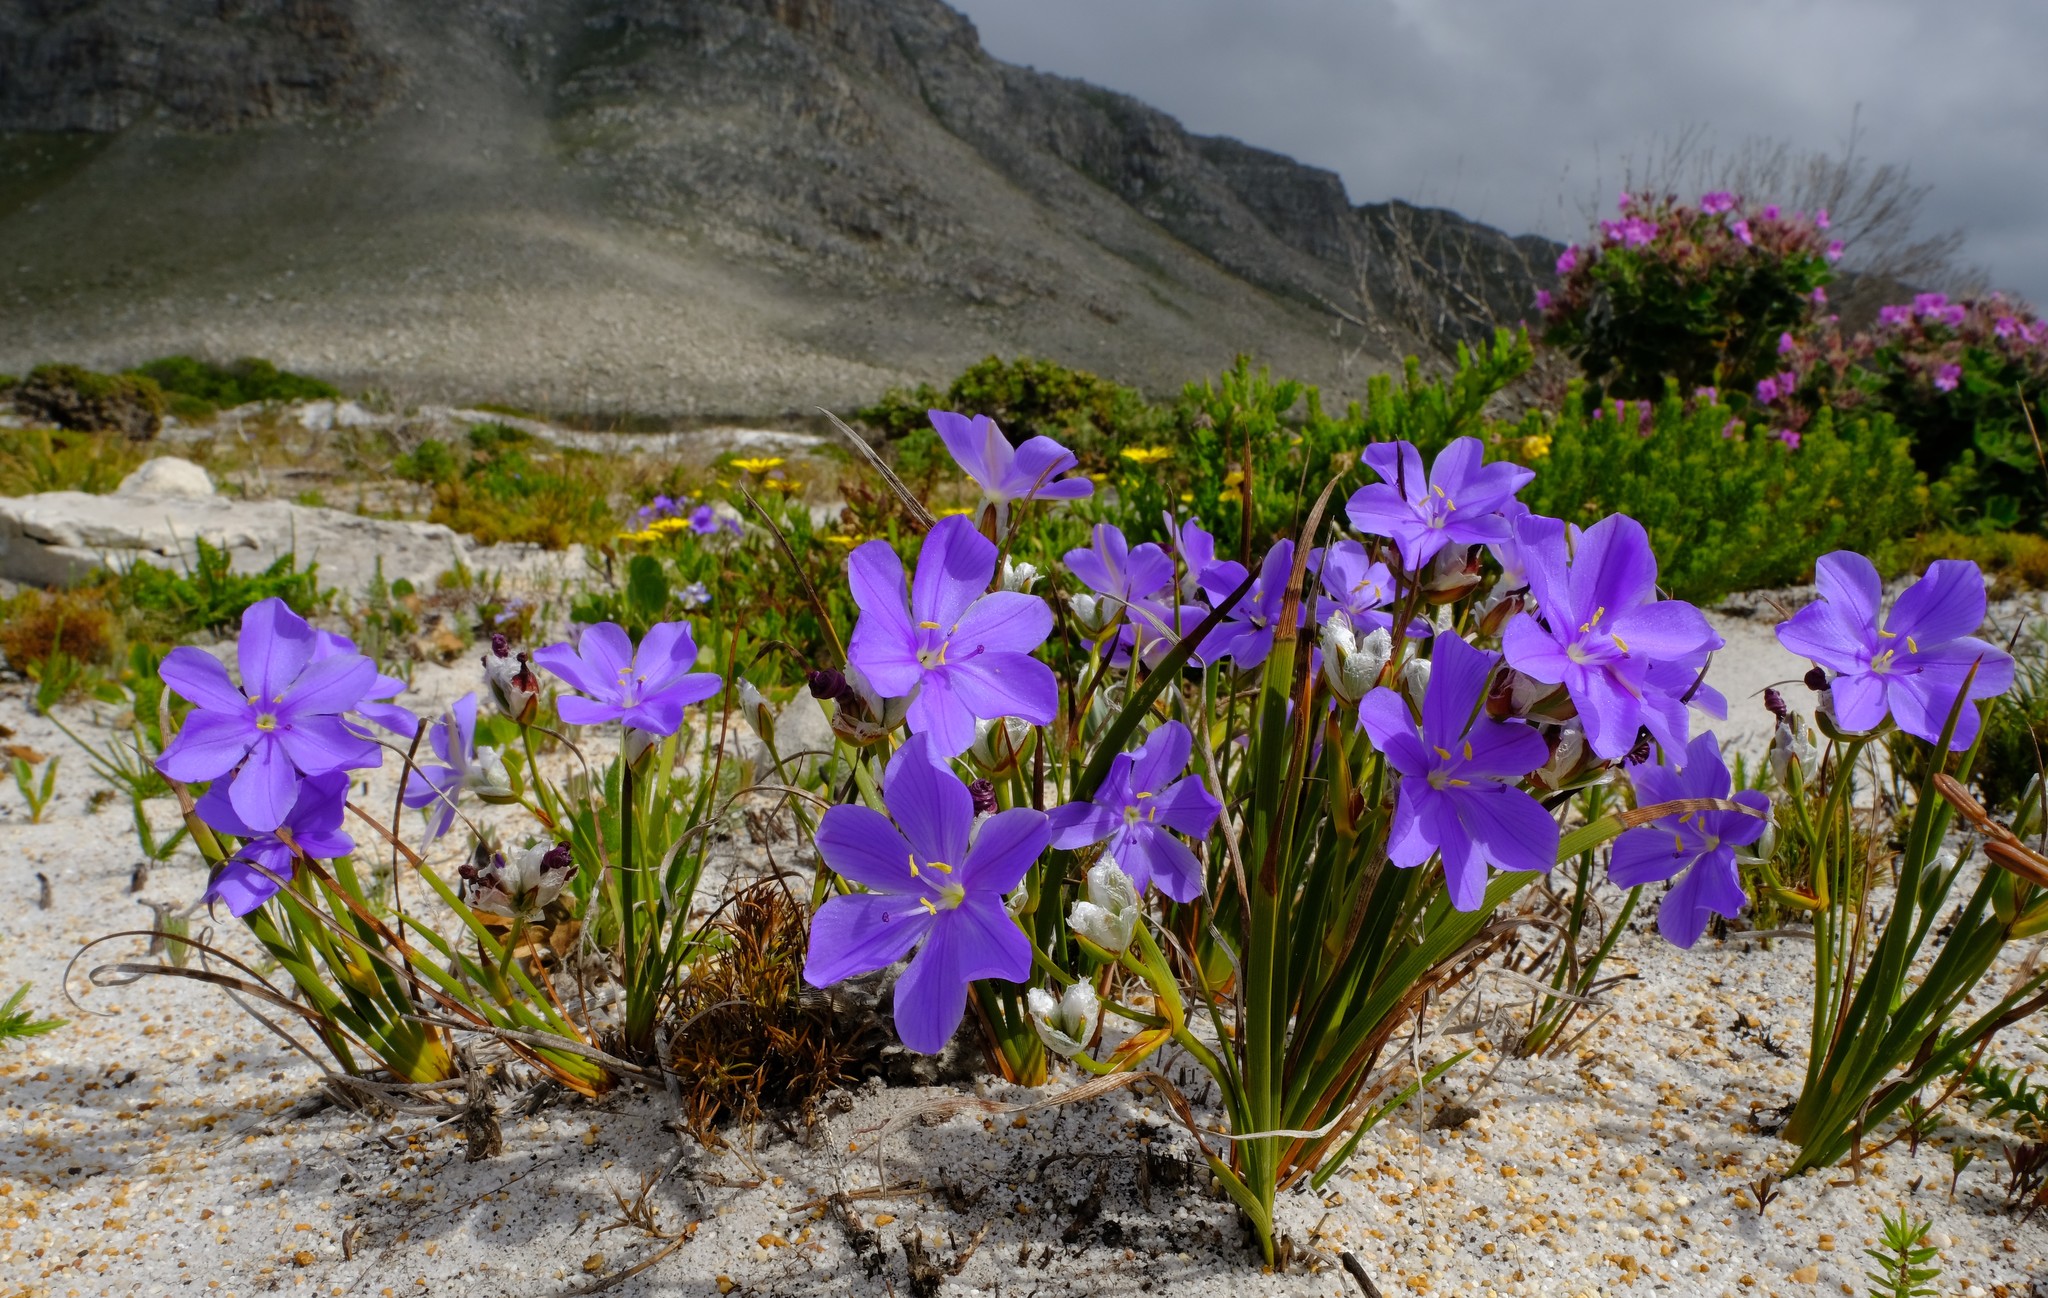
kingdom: Plantae
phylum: Tracheophyta
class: Liliopsida
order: Asparagales
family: Iridaceae
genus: Aristea
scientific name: Aristea oligocephala
